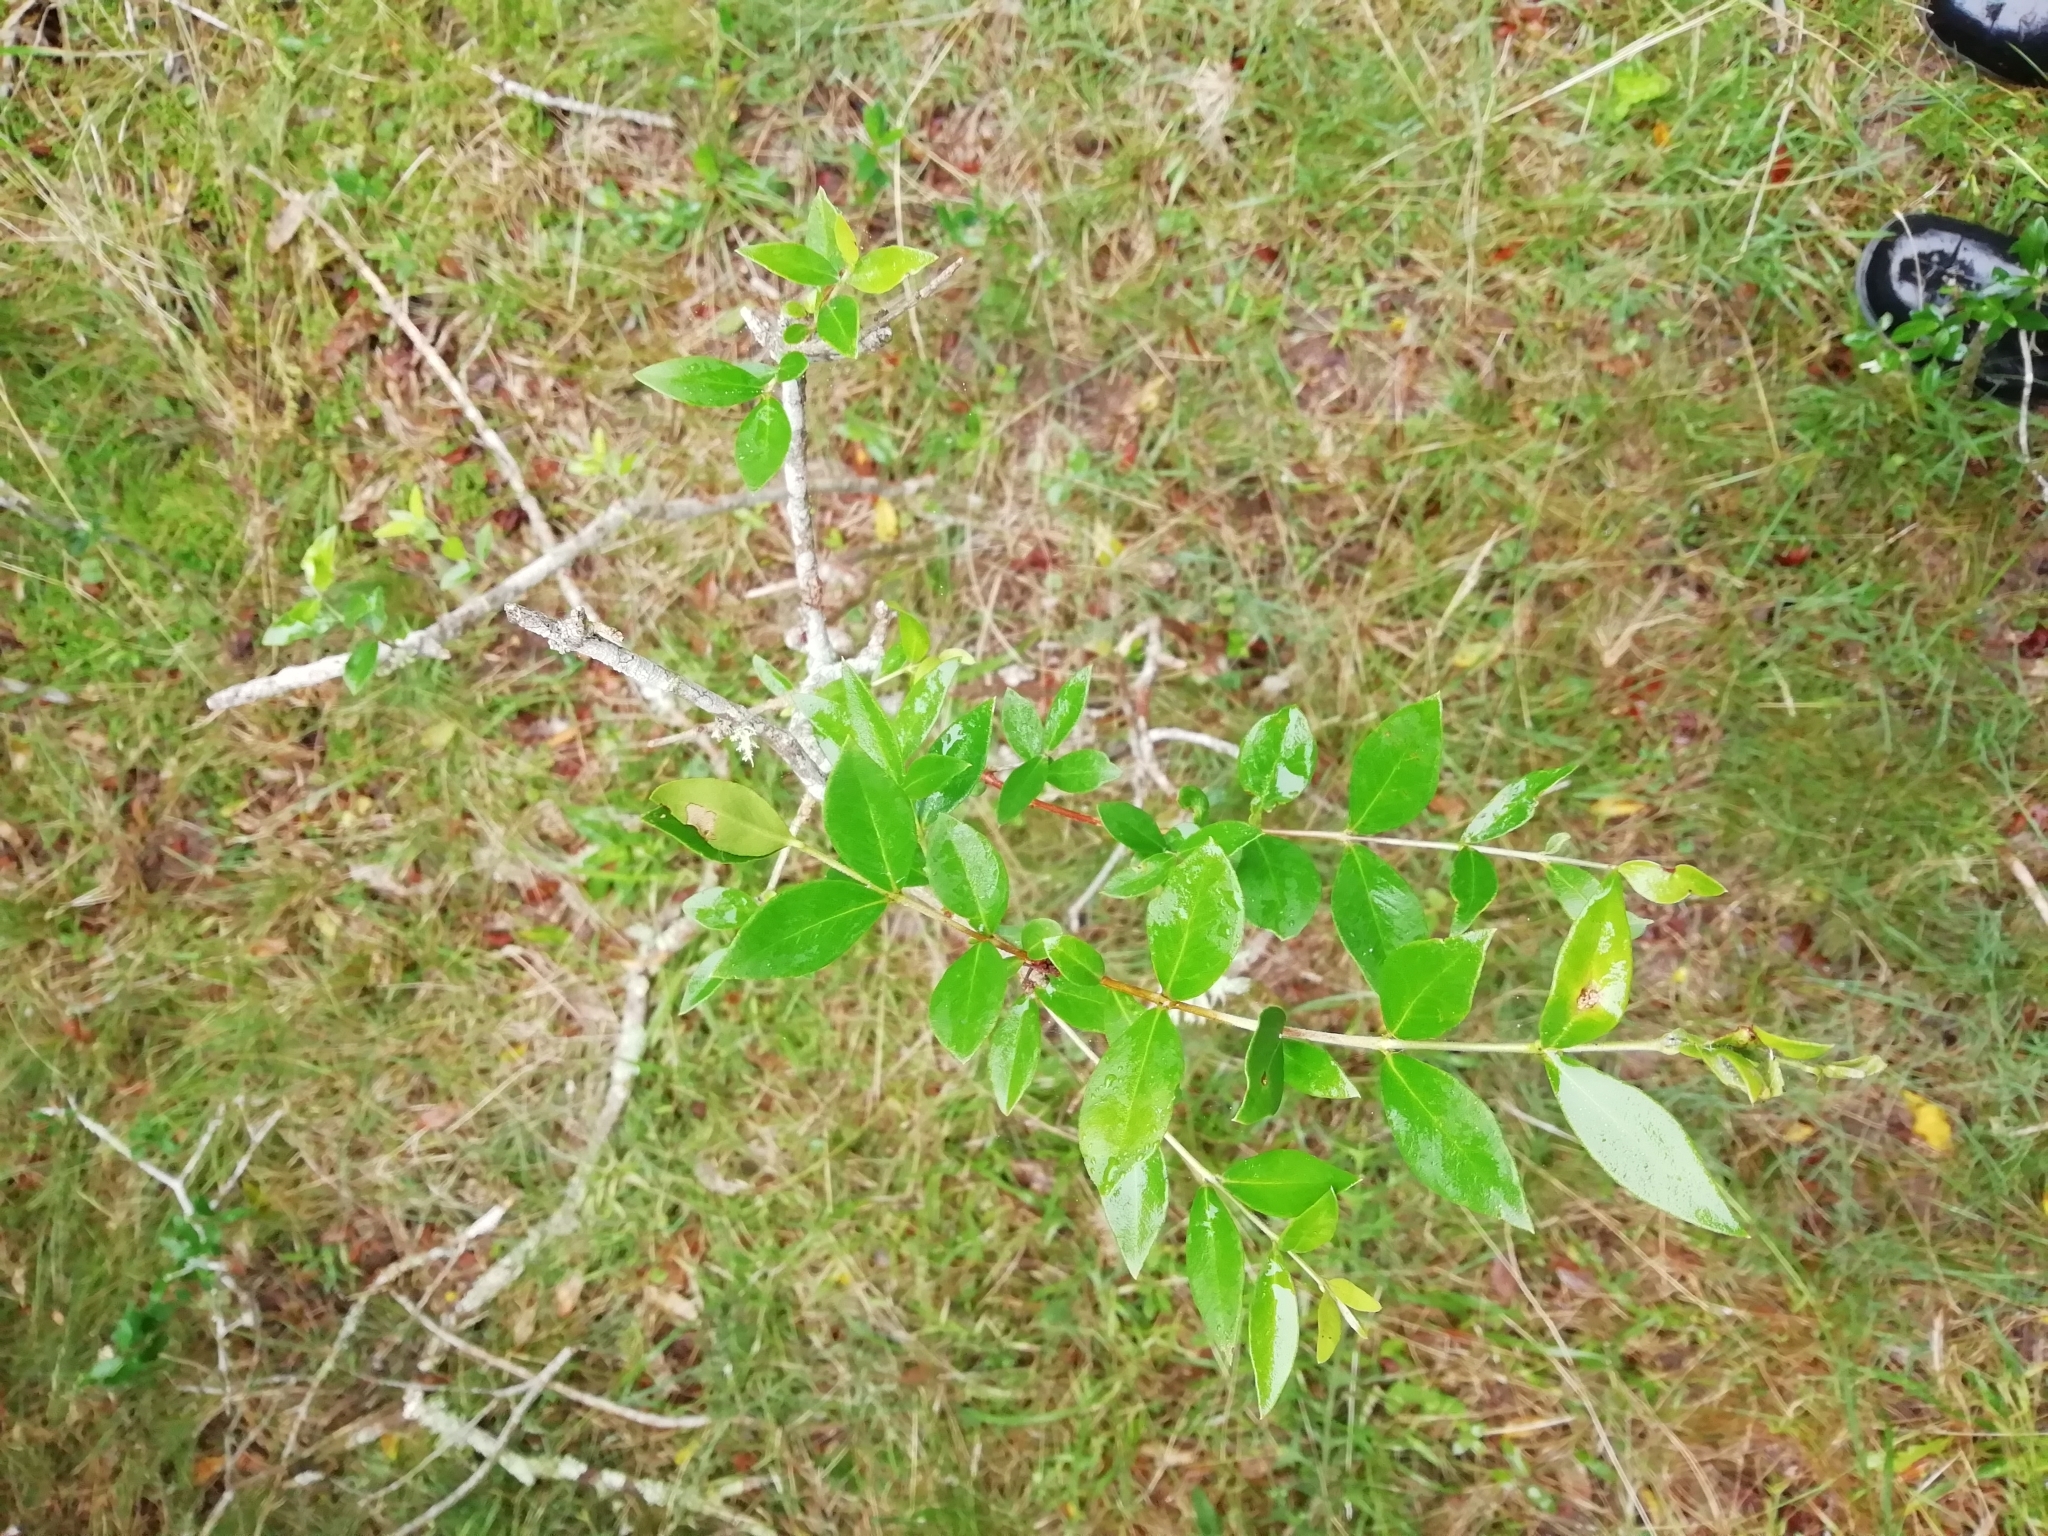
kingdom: Plantae
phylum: Tracheophyta
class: Magnoliopsida
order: Myrtales
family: Myrtaceae
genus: Myrcianthes
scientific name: Myrcianthes cisplatensis
